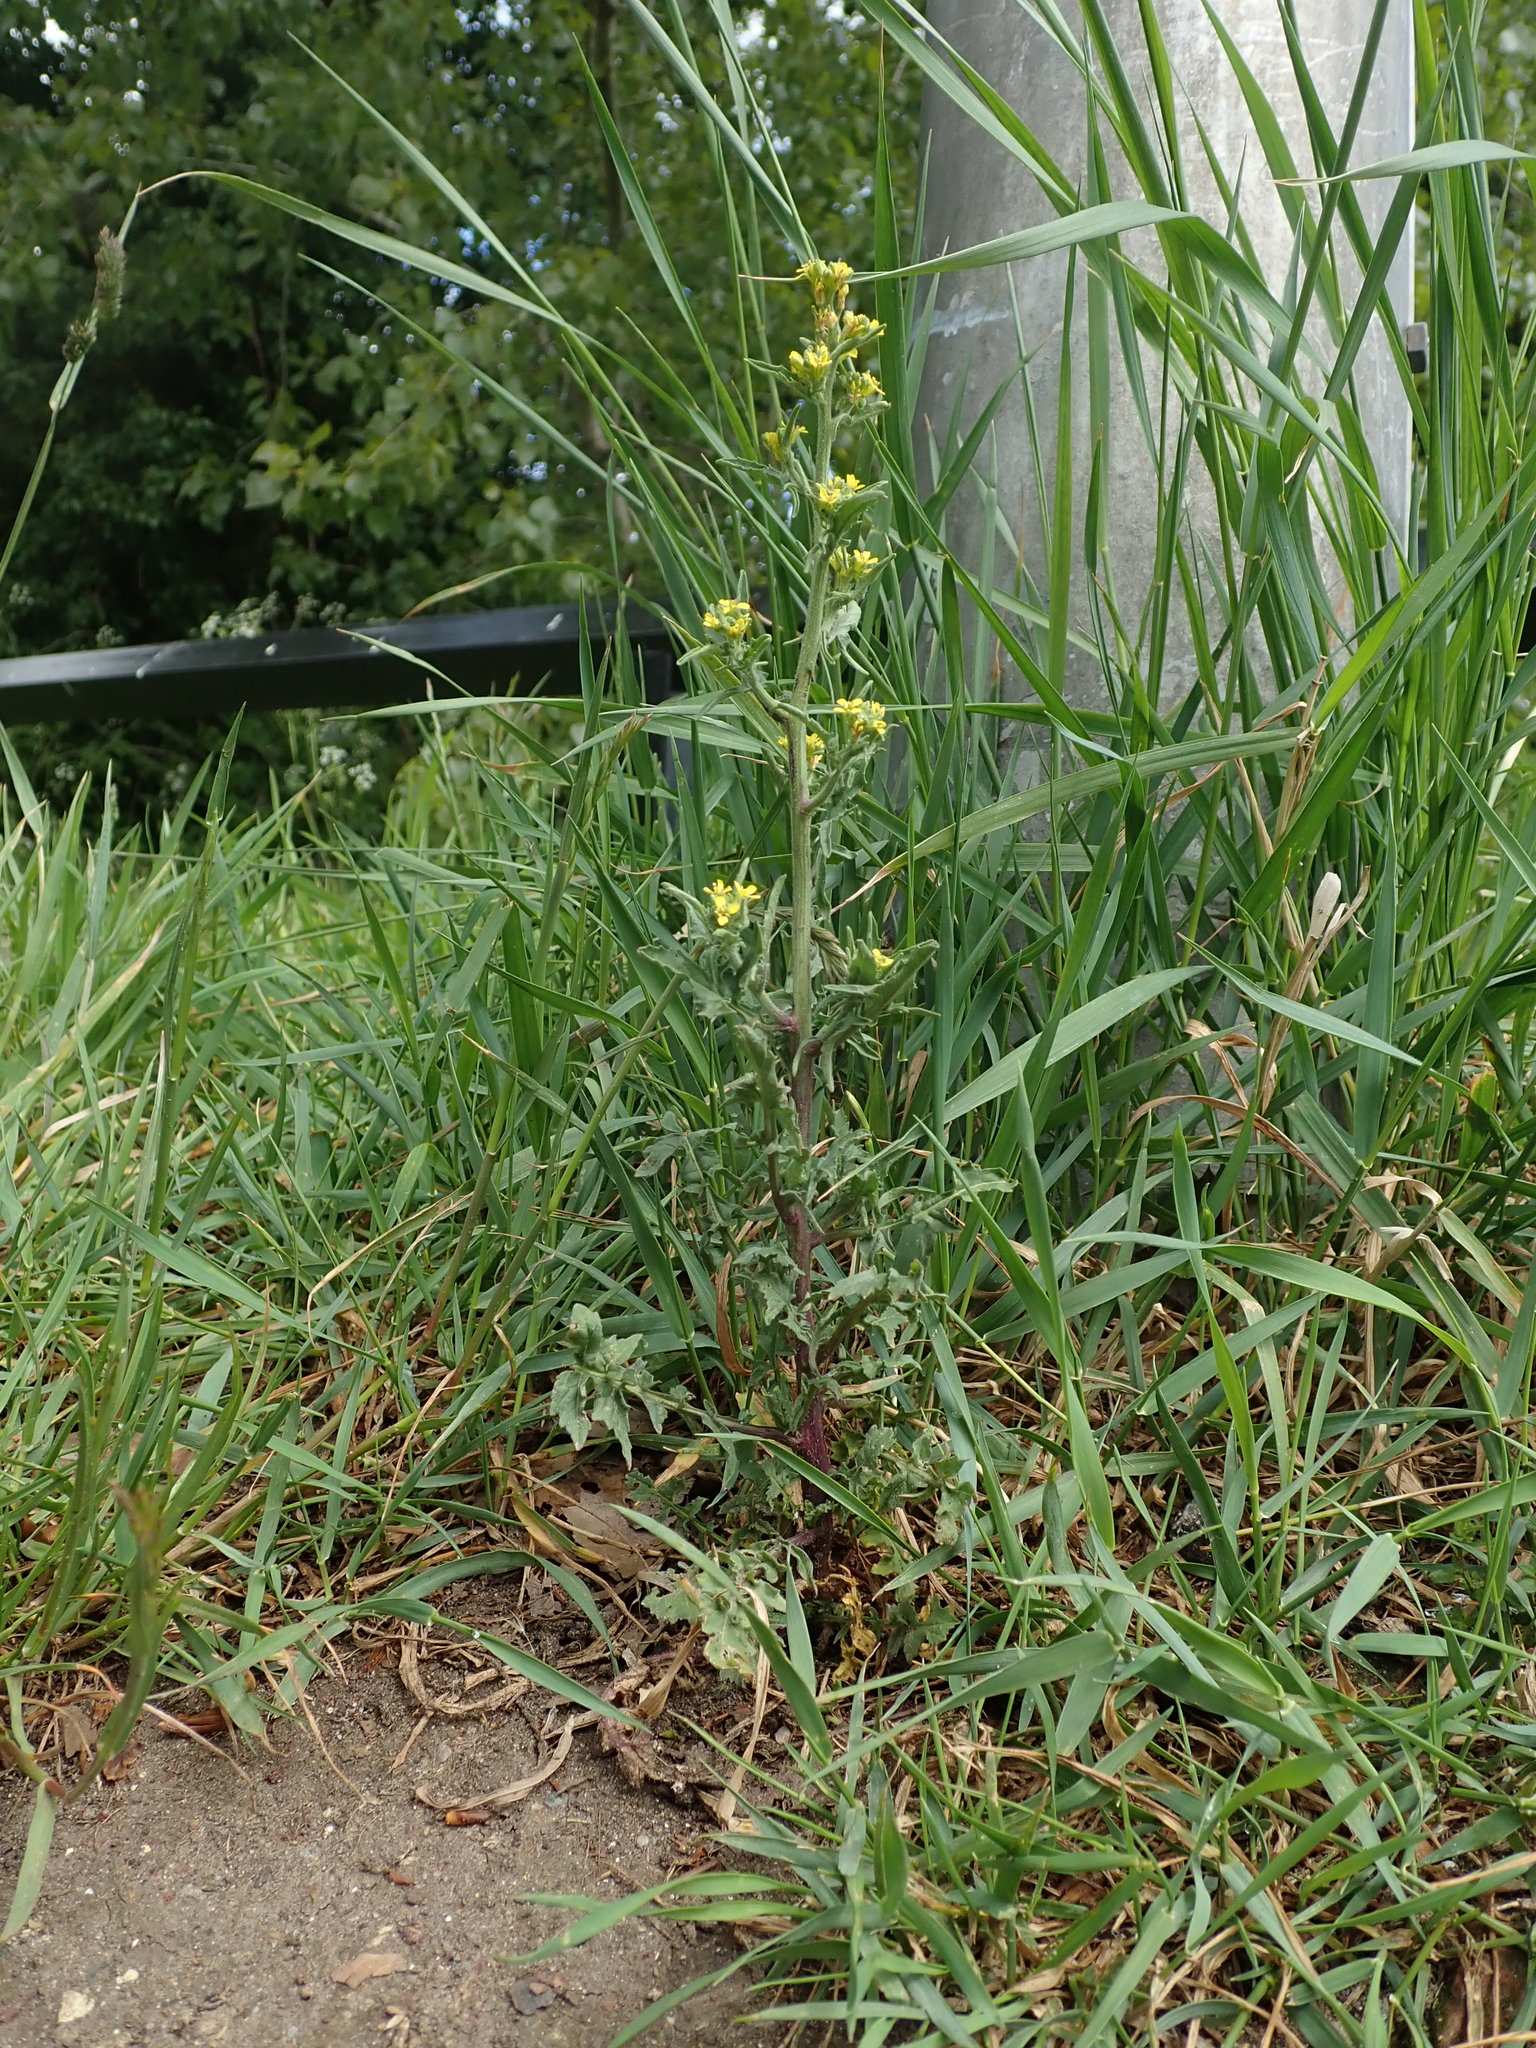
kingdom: Plantae
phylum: Tracheophyta
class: Magnoliopsida
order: Brassicales
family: Brassicaceae
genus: Sisymbrium
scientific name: Sisymbrium officinale
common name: Hedge mustard
